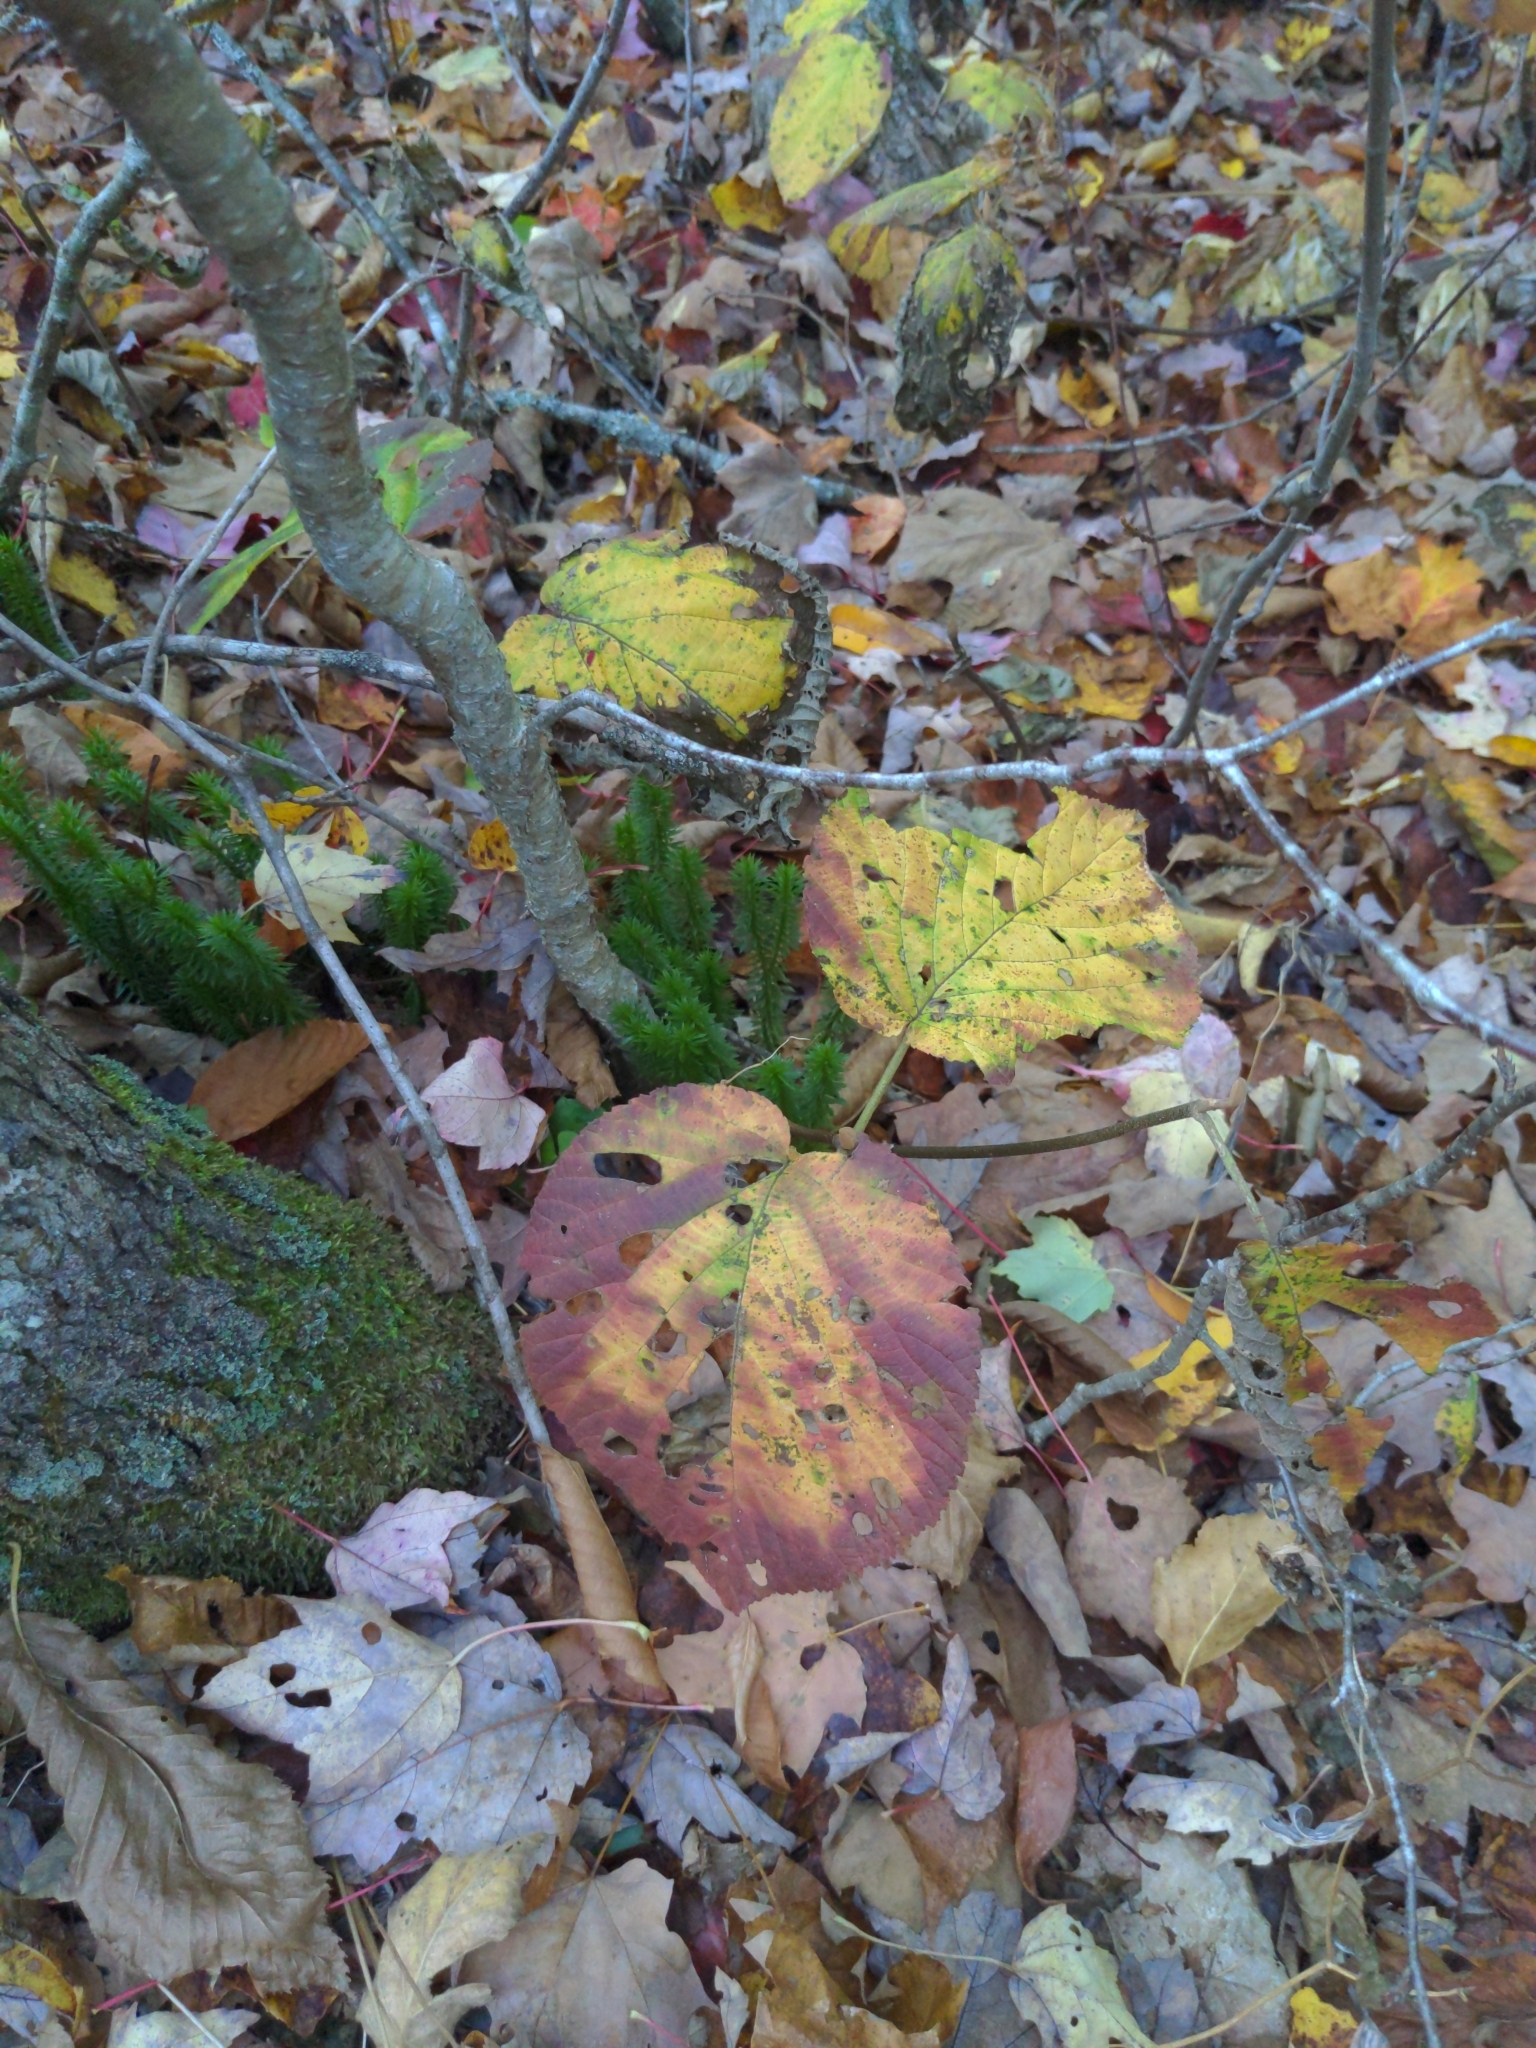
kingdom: Plantae
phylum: Tracheophyta
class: Magnoliopsida
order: Dipsacales
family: Viburnaceae
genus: Viburnum
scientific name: Viburnum lantanoides
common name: Hobblebush
